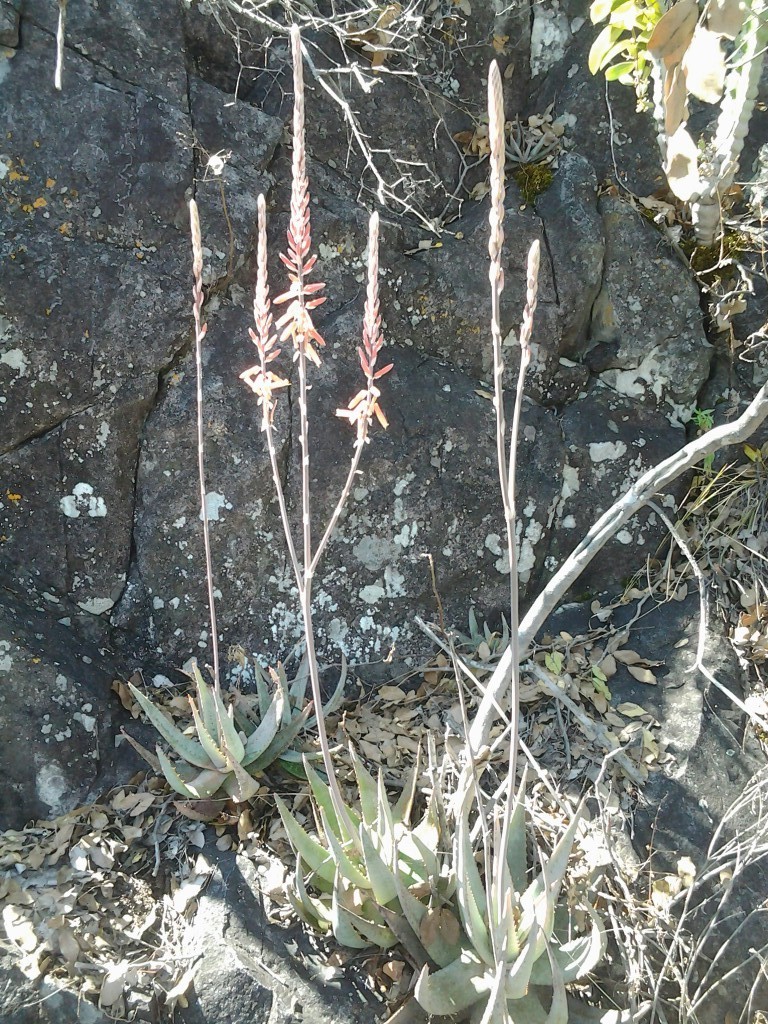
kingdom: Plantae
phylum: Tracheophyta
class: Liliopsida
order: Asparagales
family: Asphodelaceae
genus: Aloe
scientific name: Aloe metallica
